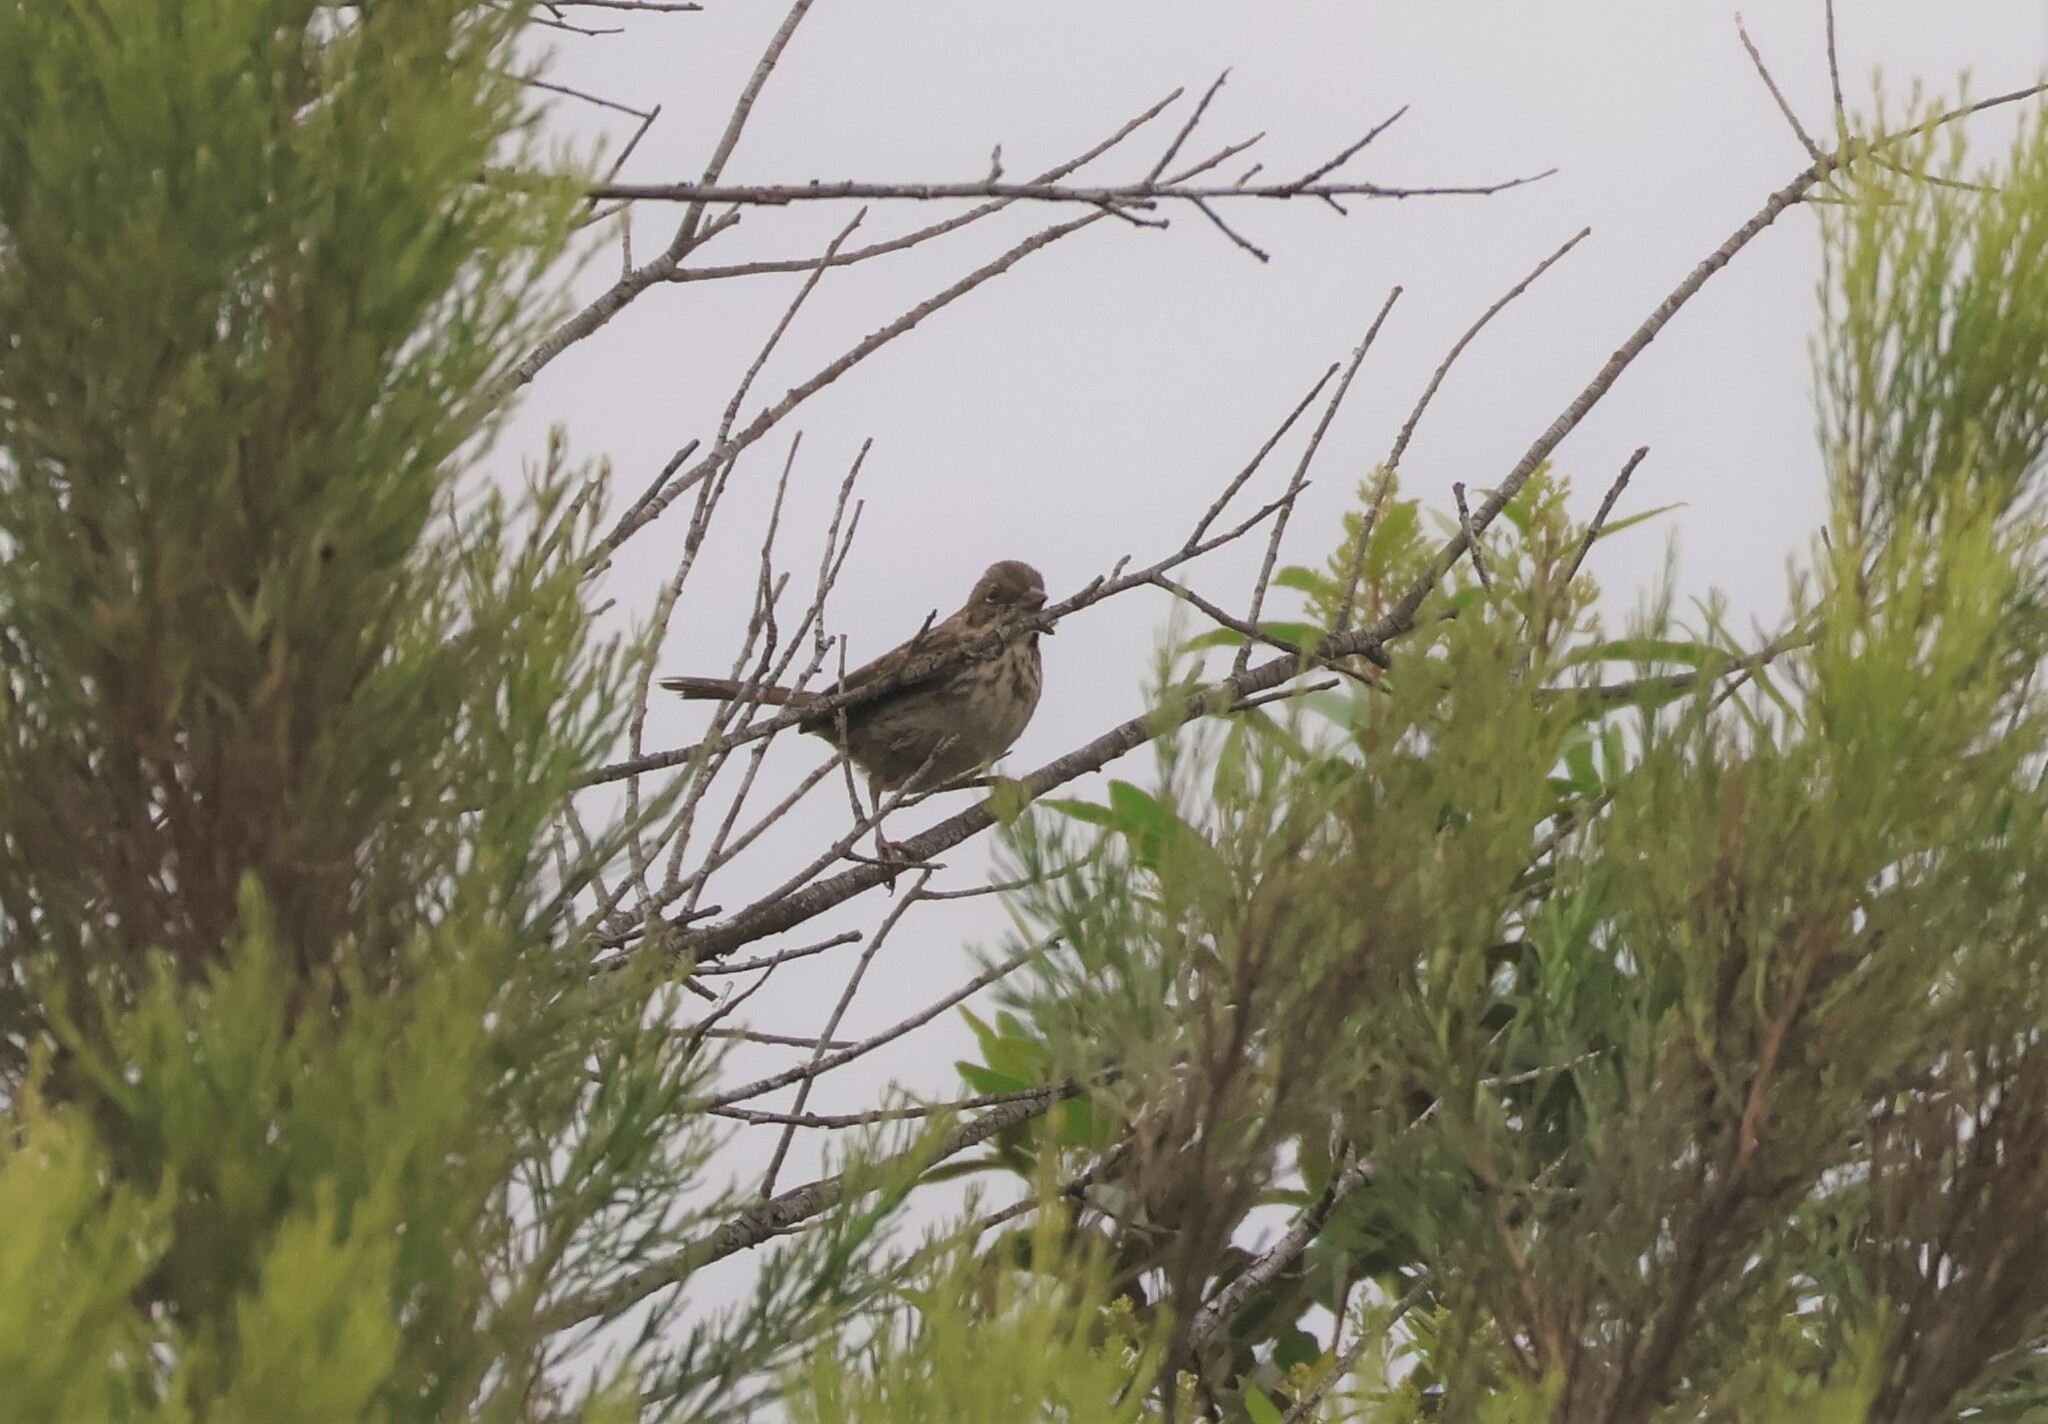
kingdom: Animalia
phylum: Chordata
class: Aves
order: Passeriformes
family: Passerellidae
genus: Melospiza
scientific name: Melospiza melodia
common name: Song sparrow
